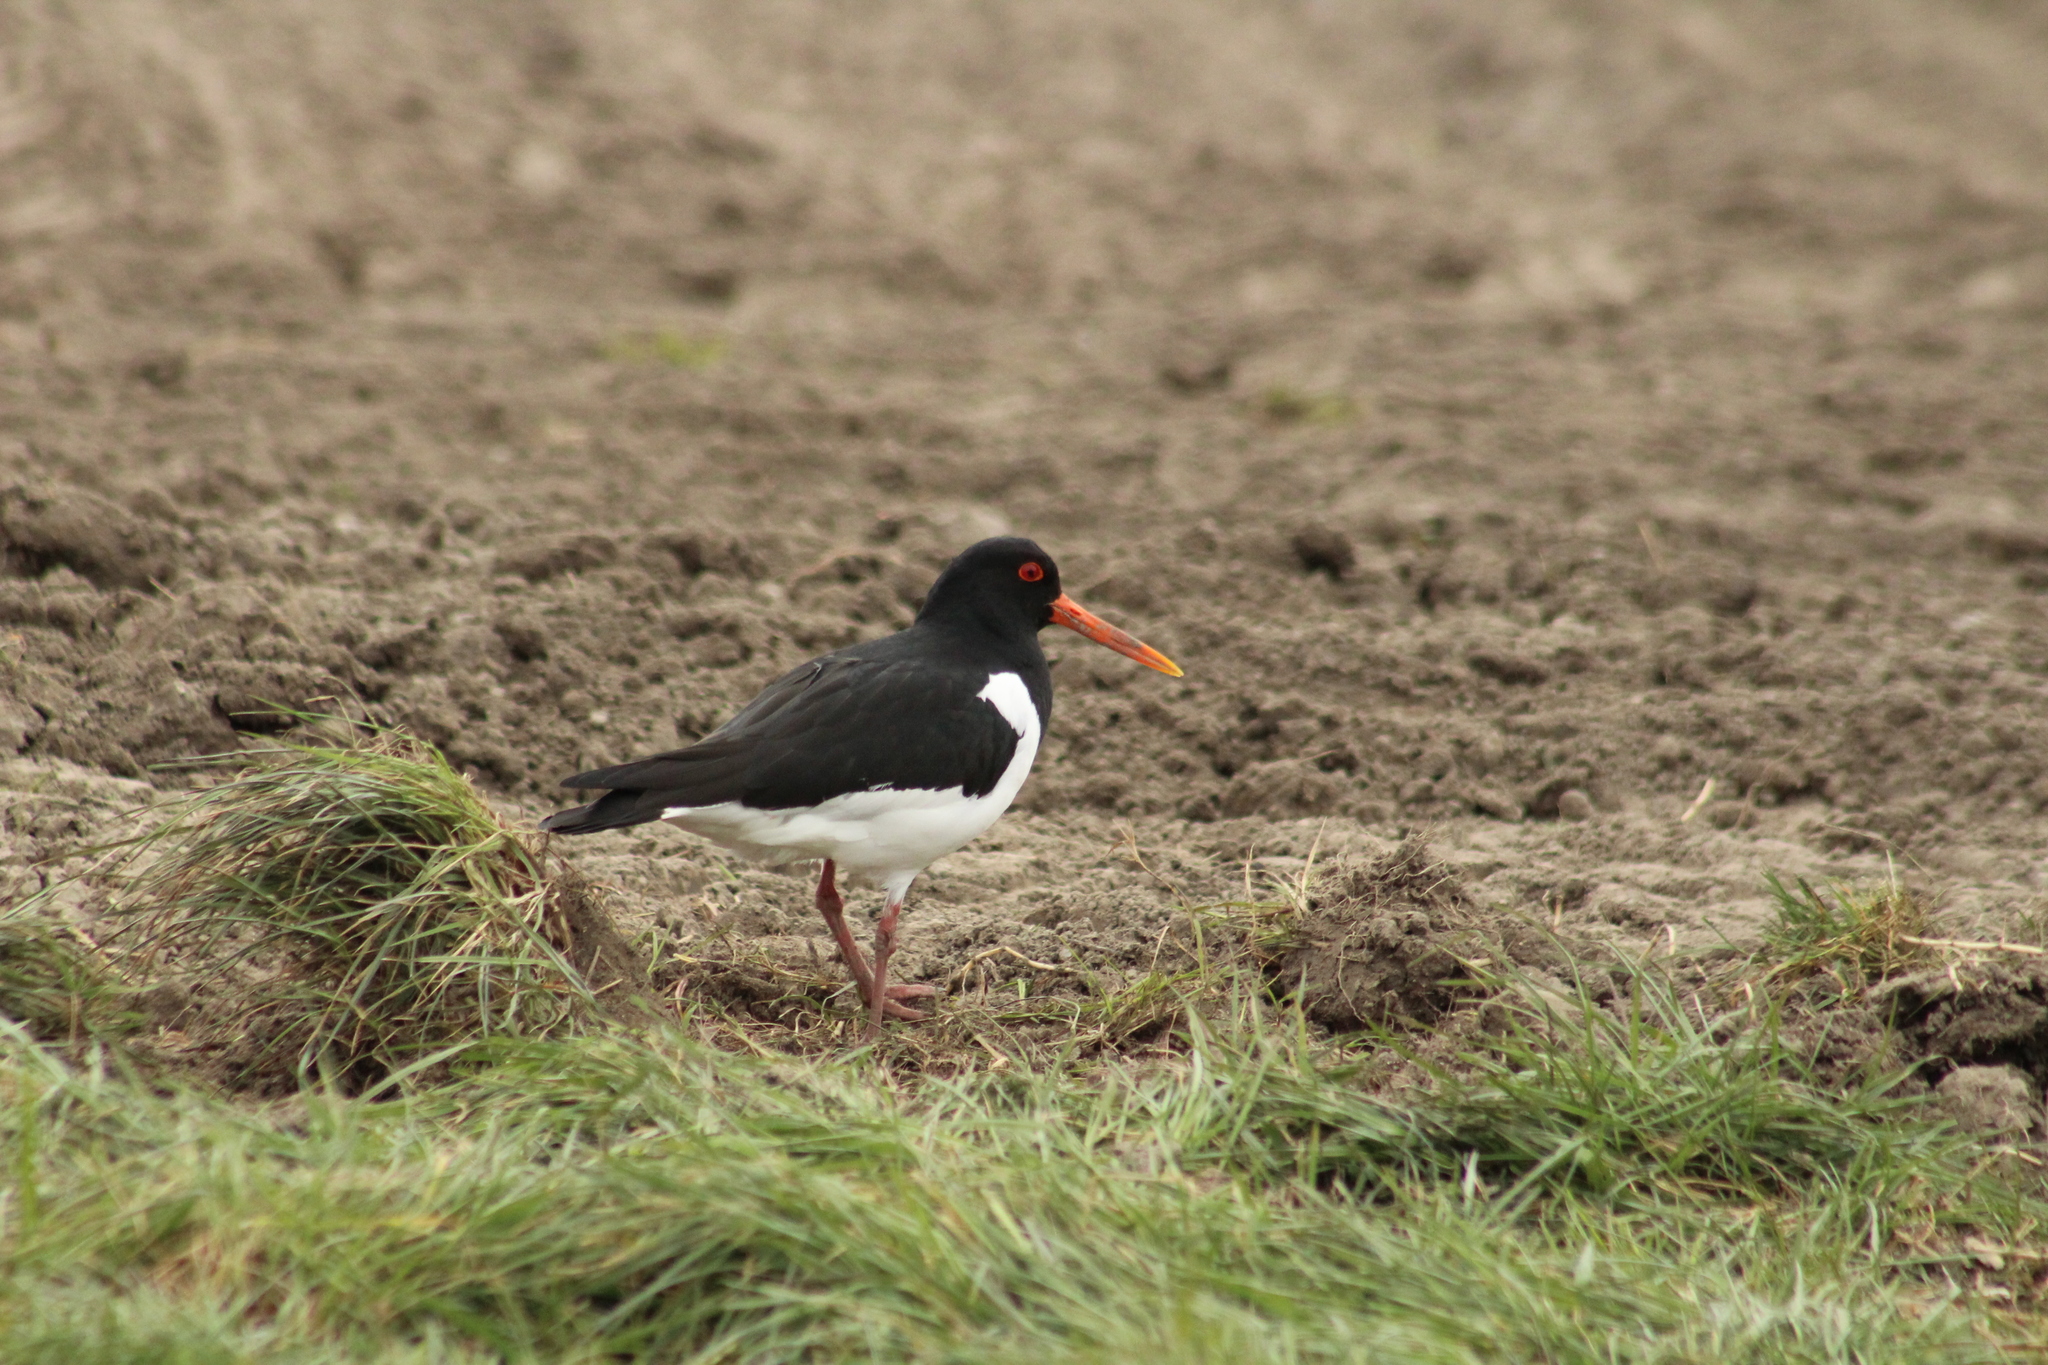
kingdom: Animalia
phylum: Chordata
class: Aves
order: Charadriiformes
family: Haematopodidae
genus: Haematopus
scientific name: Haematopus ostralegus
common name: Eurasian oystercatcher
